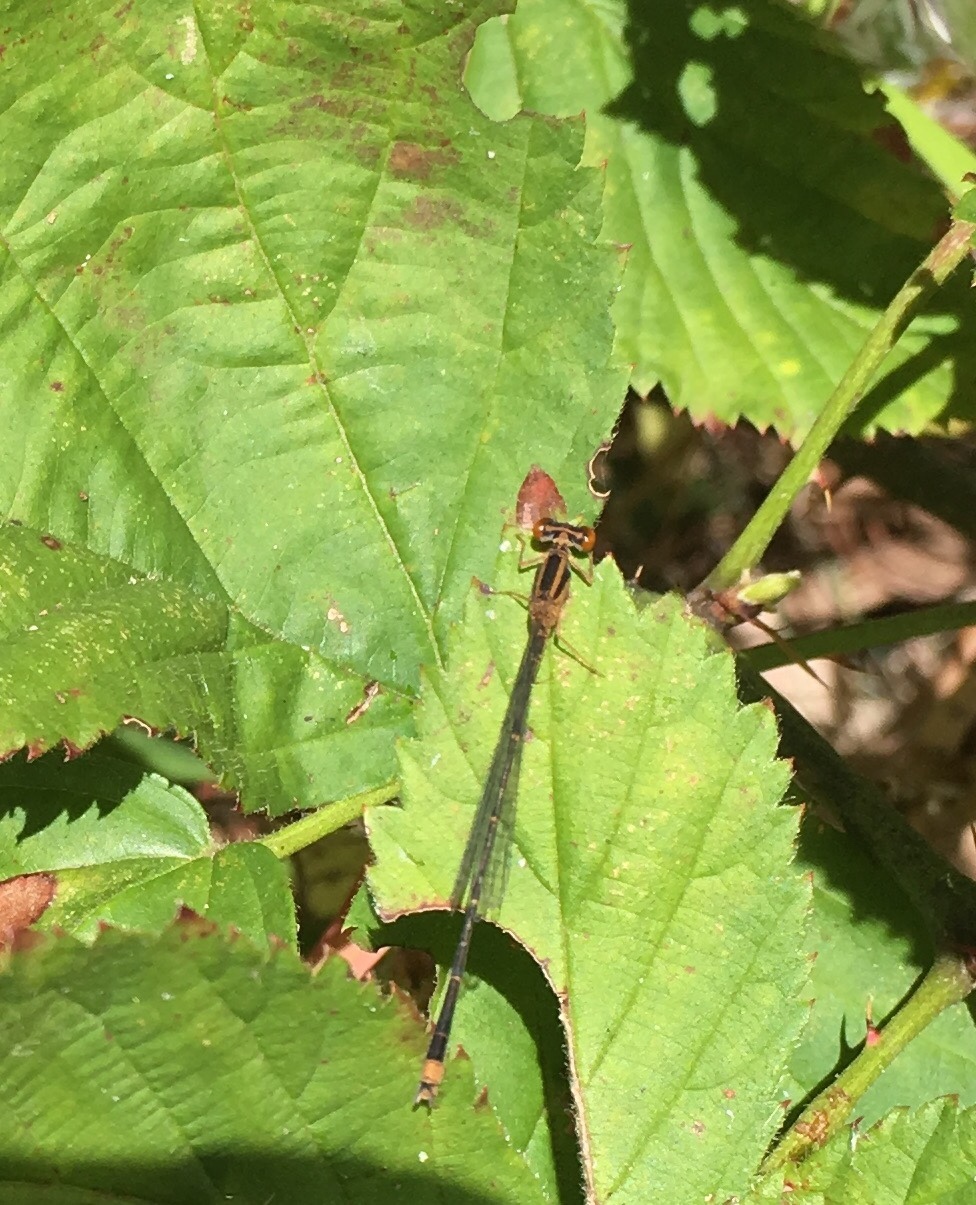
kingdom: Animalia
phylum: Arthropoda
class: Insecta
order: Odonata
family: Coenagrionidae
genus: Enallagma
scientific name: Enallagma signatum
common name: Orange bluet
